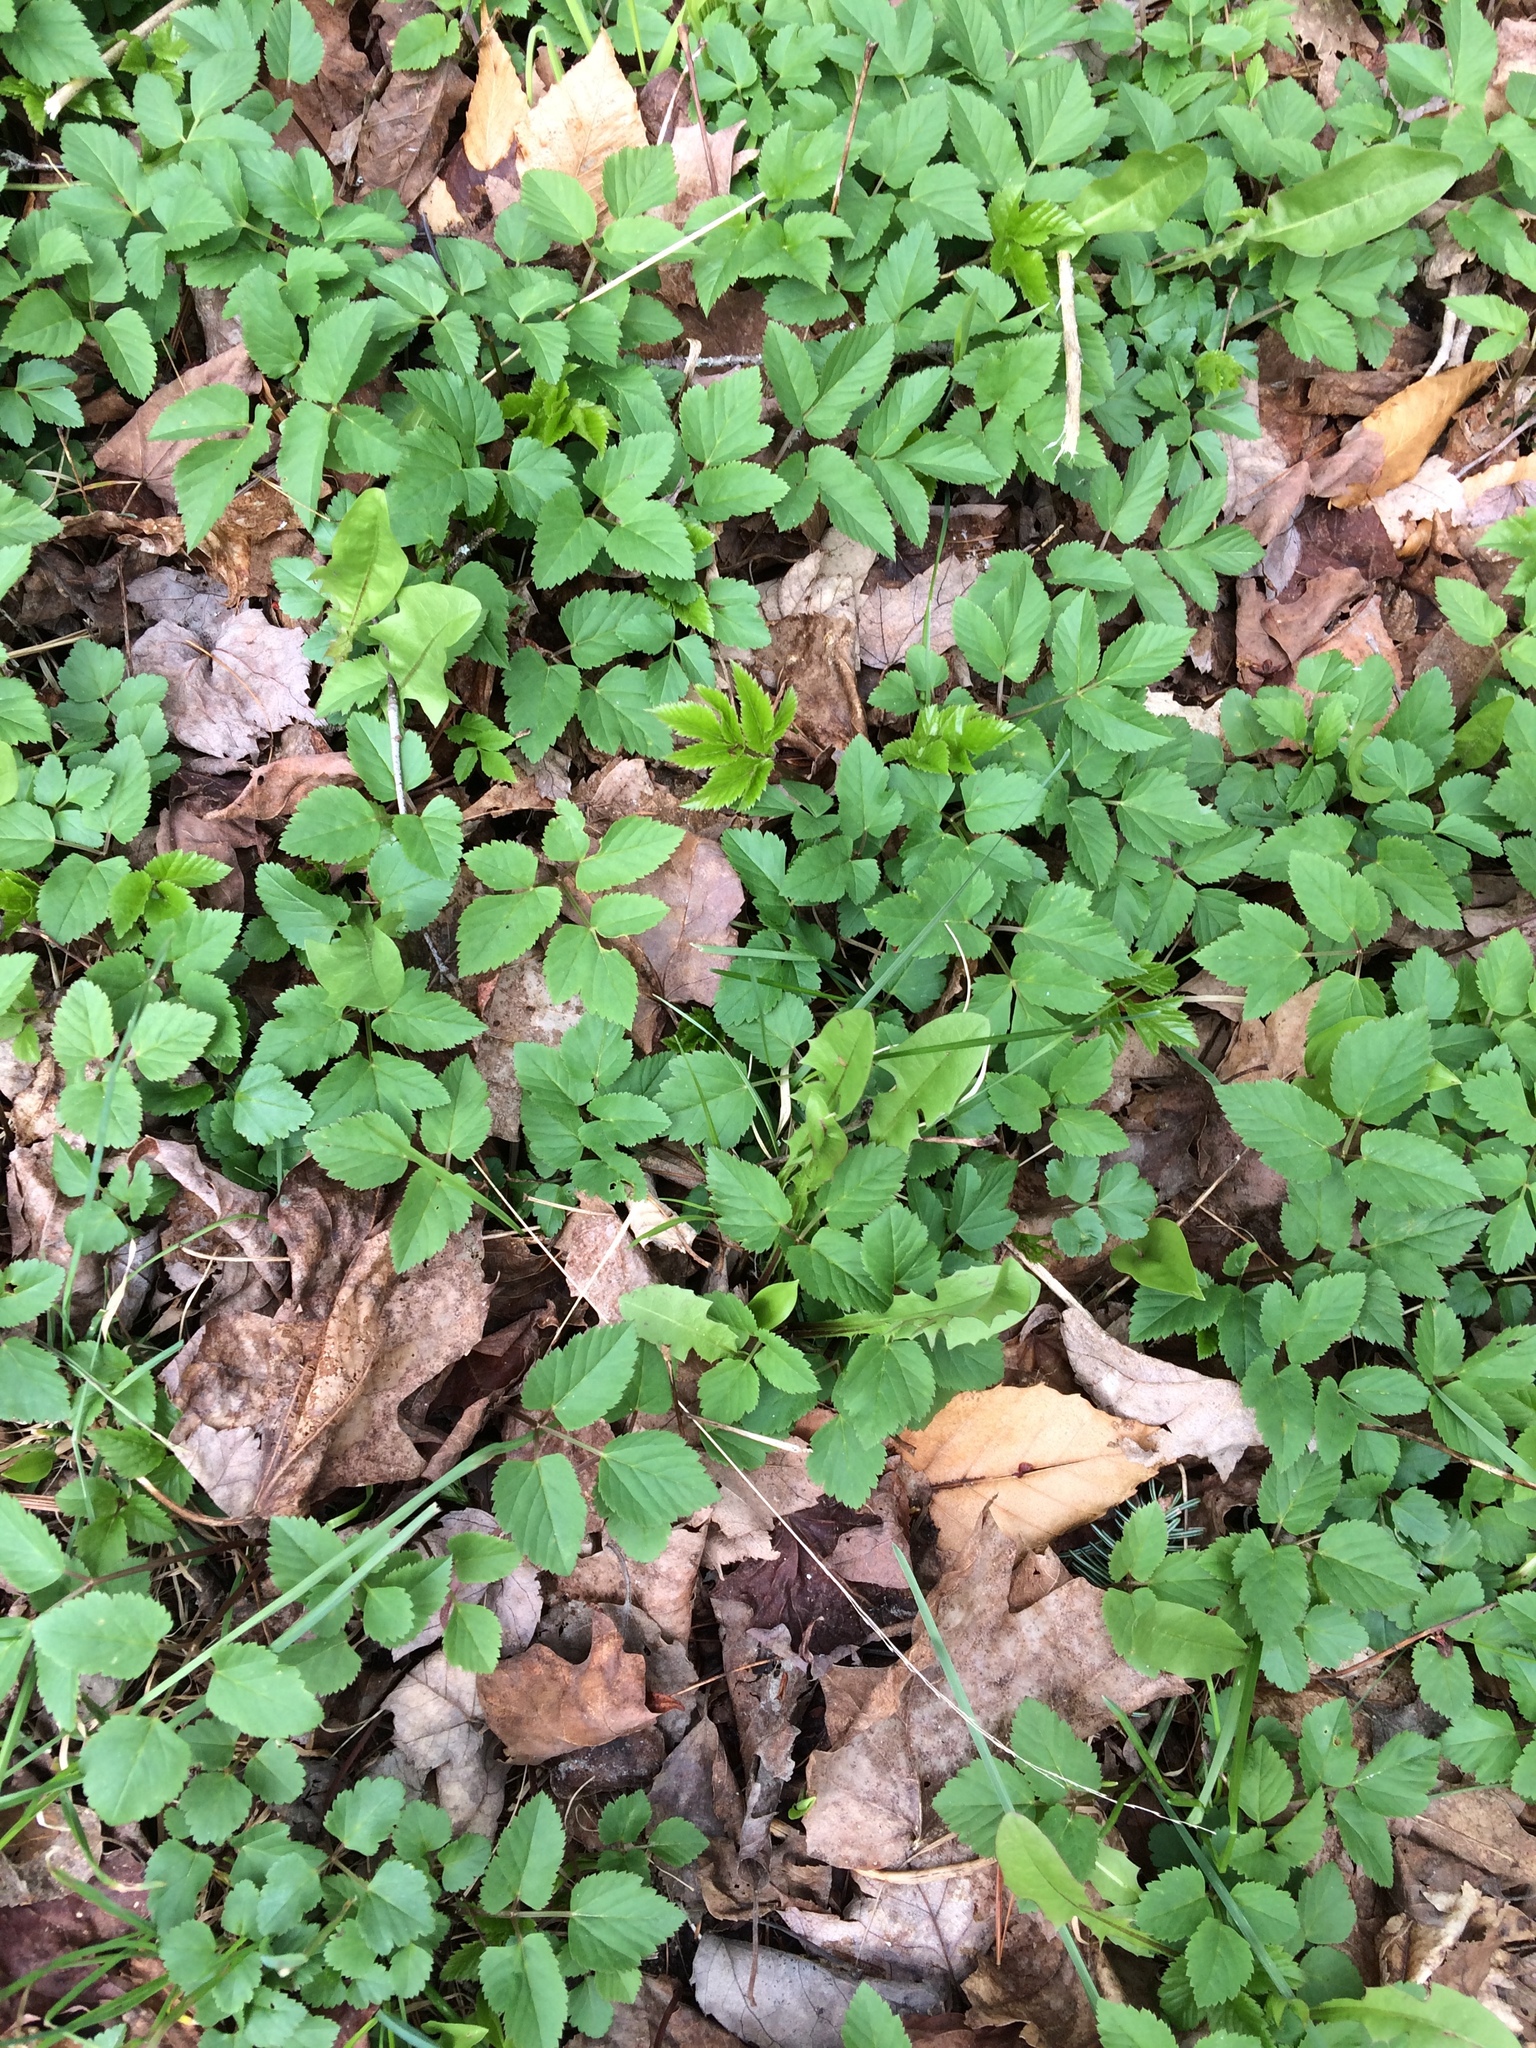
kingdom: Plantae
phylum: Tracheophyta
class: Magnoliopsida
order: Apiales
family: Apiaceae
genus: Aegopodium
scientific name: Aegopodium podagraria
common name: Ground-elder
